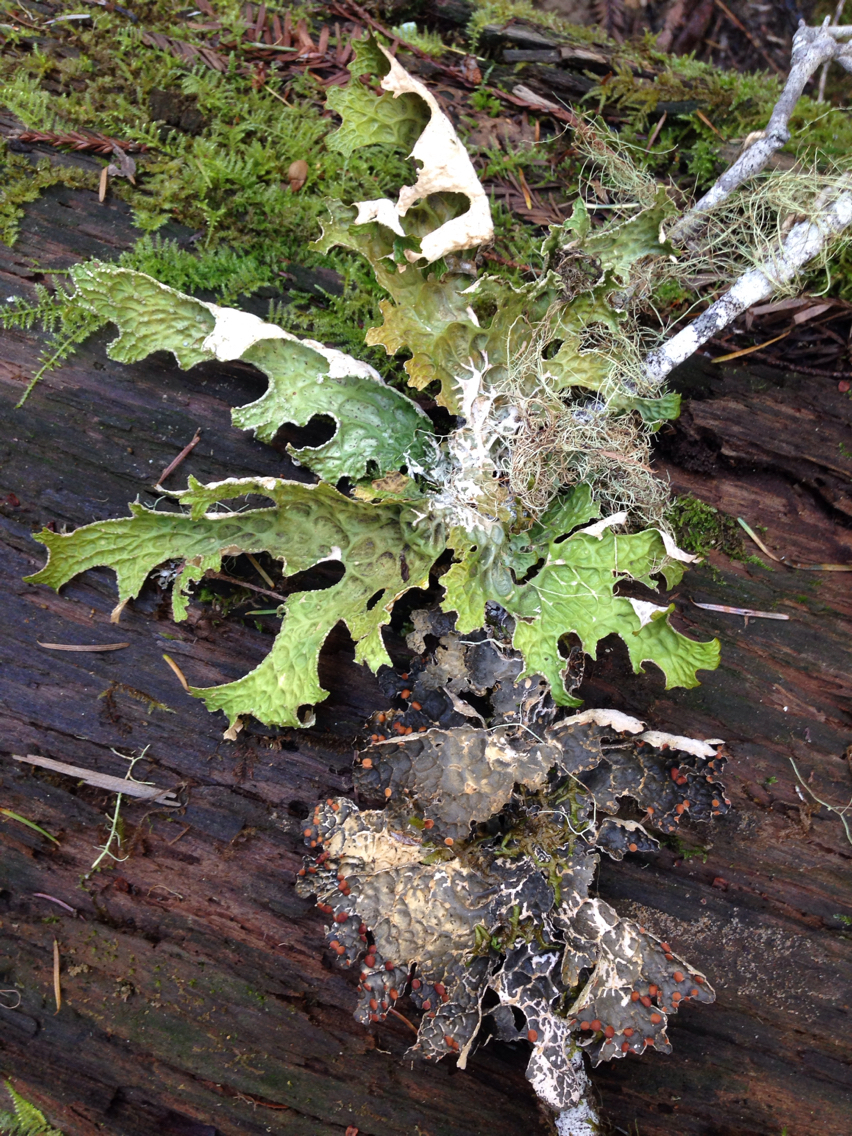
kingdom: Fungi
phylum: Ascomycota
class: Lecanoromycetes
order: Peltigerales
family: Lobariaceae
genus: Lobaria
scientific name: Lobaria pulmonaria
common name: Lungwort
